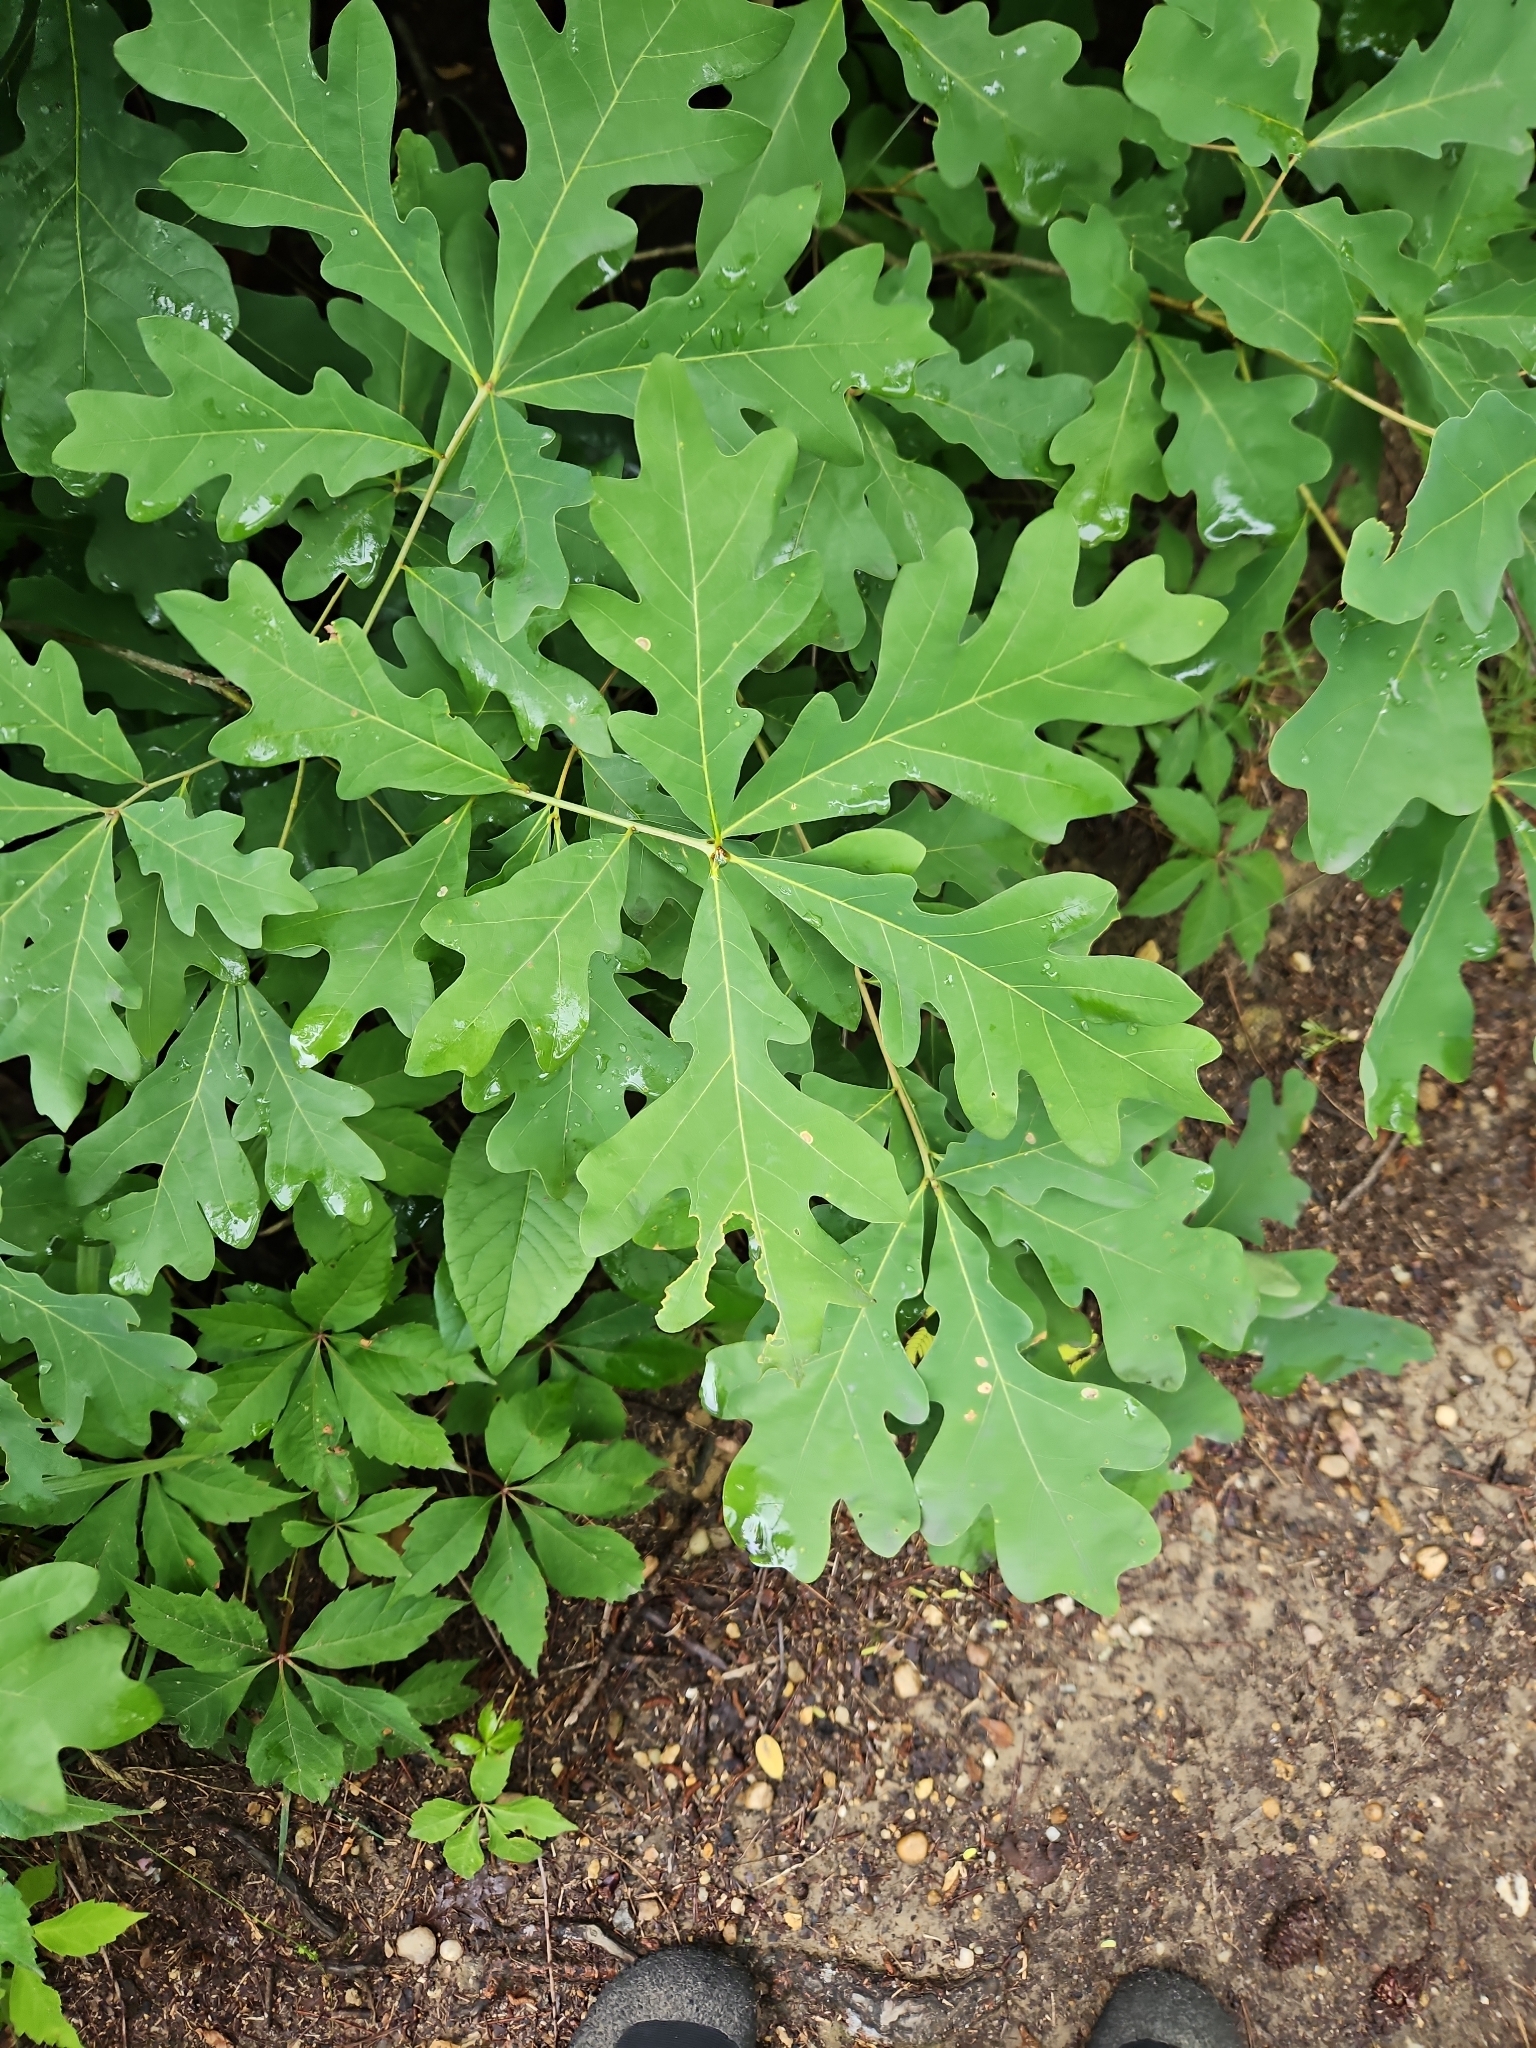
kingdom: Plantae
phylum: Tracheophyta
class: Magnoliopsida
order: Fagales
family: Fagaceae
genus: Quercus
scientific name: Quercus alba
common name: White oak
